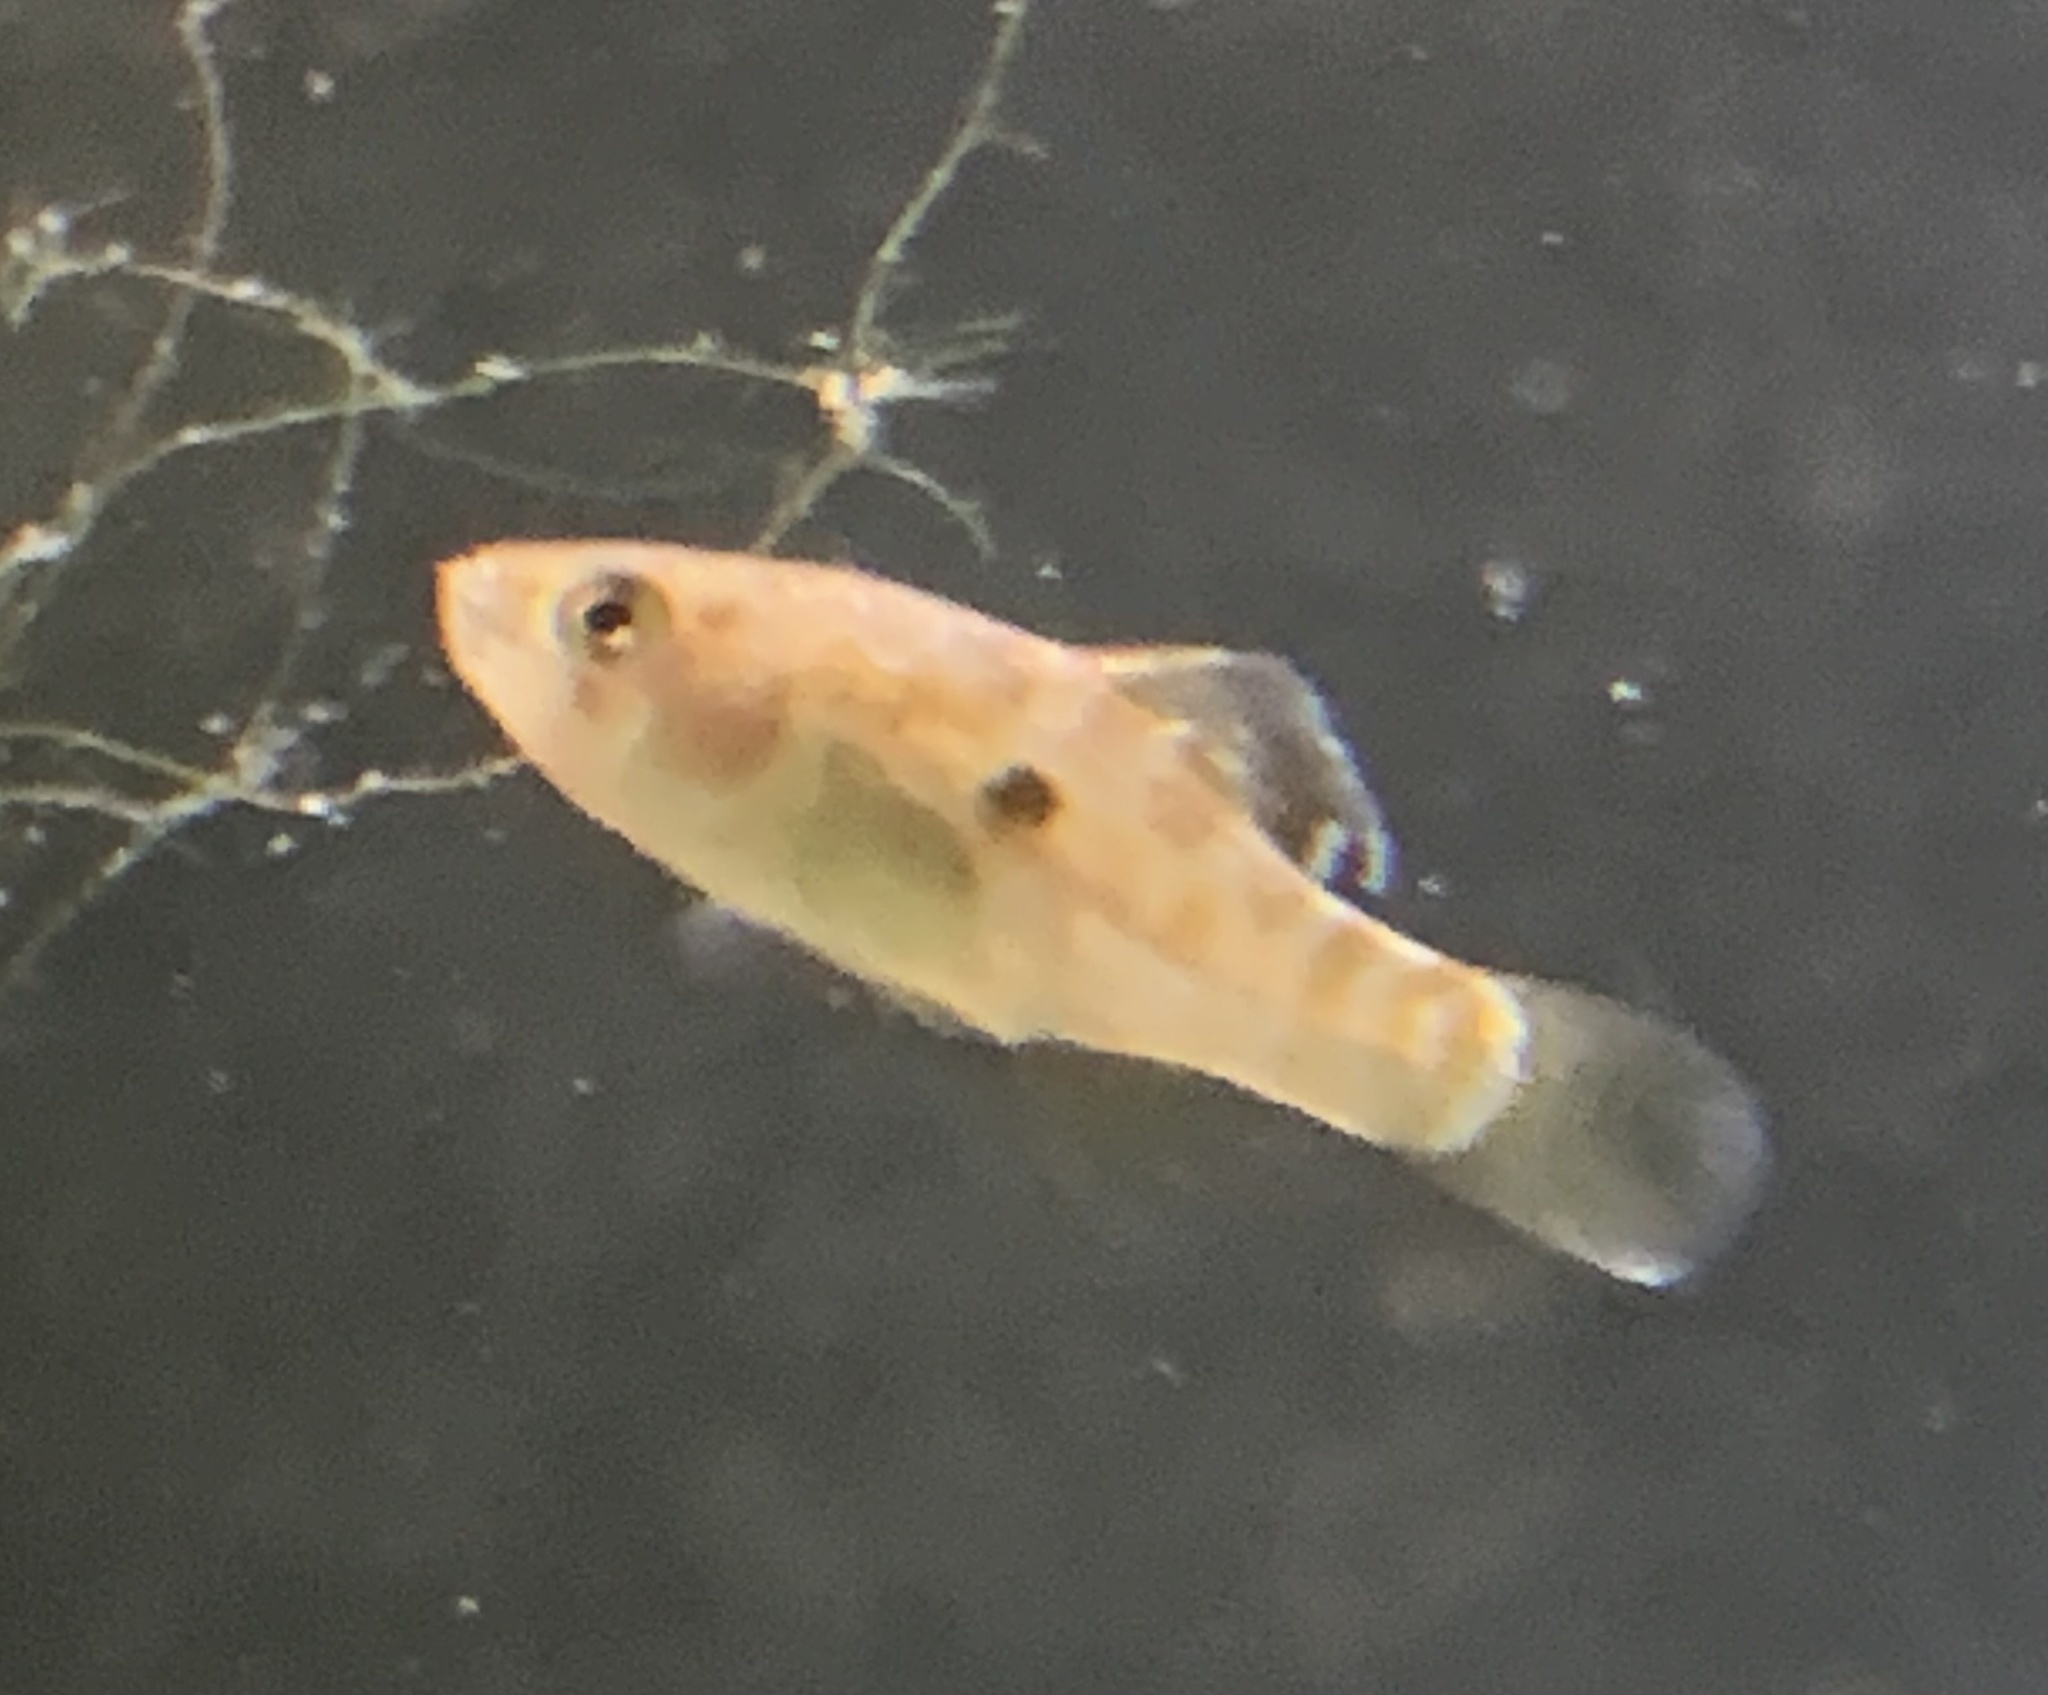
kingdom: Animalia
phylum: Chordata
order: Cyprinodontiformes
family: Cyprinodontidae
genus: Jordanella
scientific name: Jordanella floridae
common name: Flagfish
